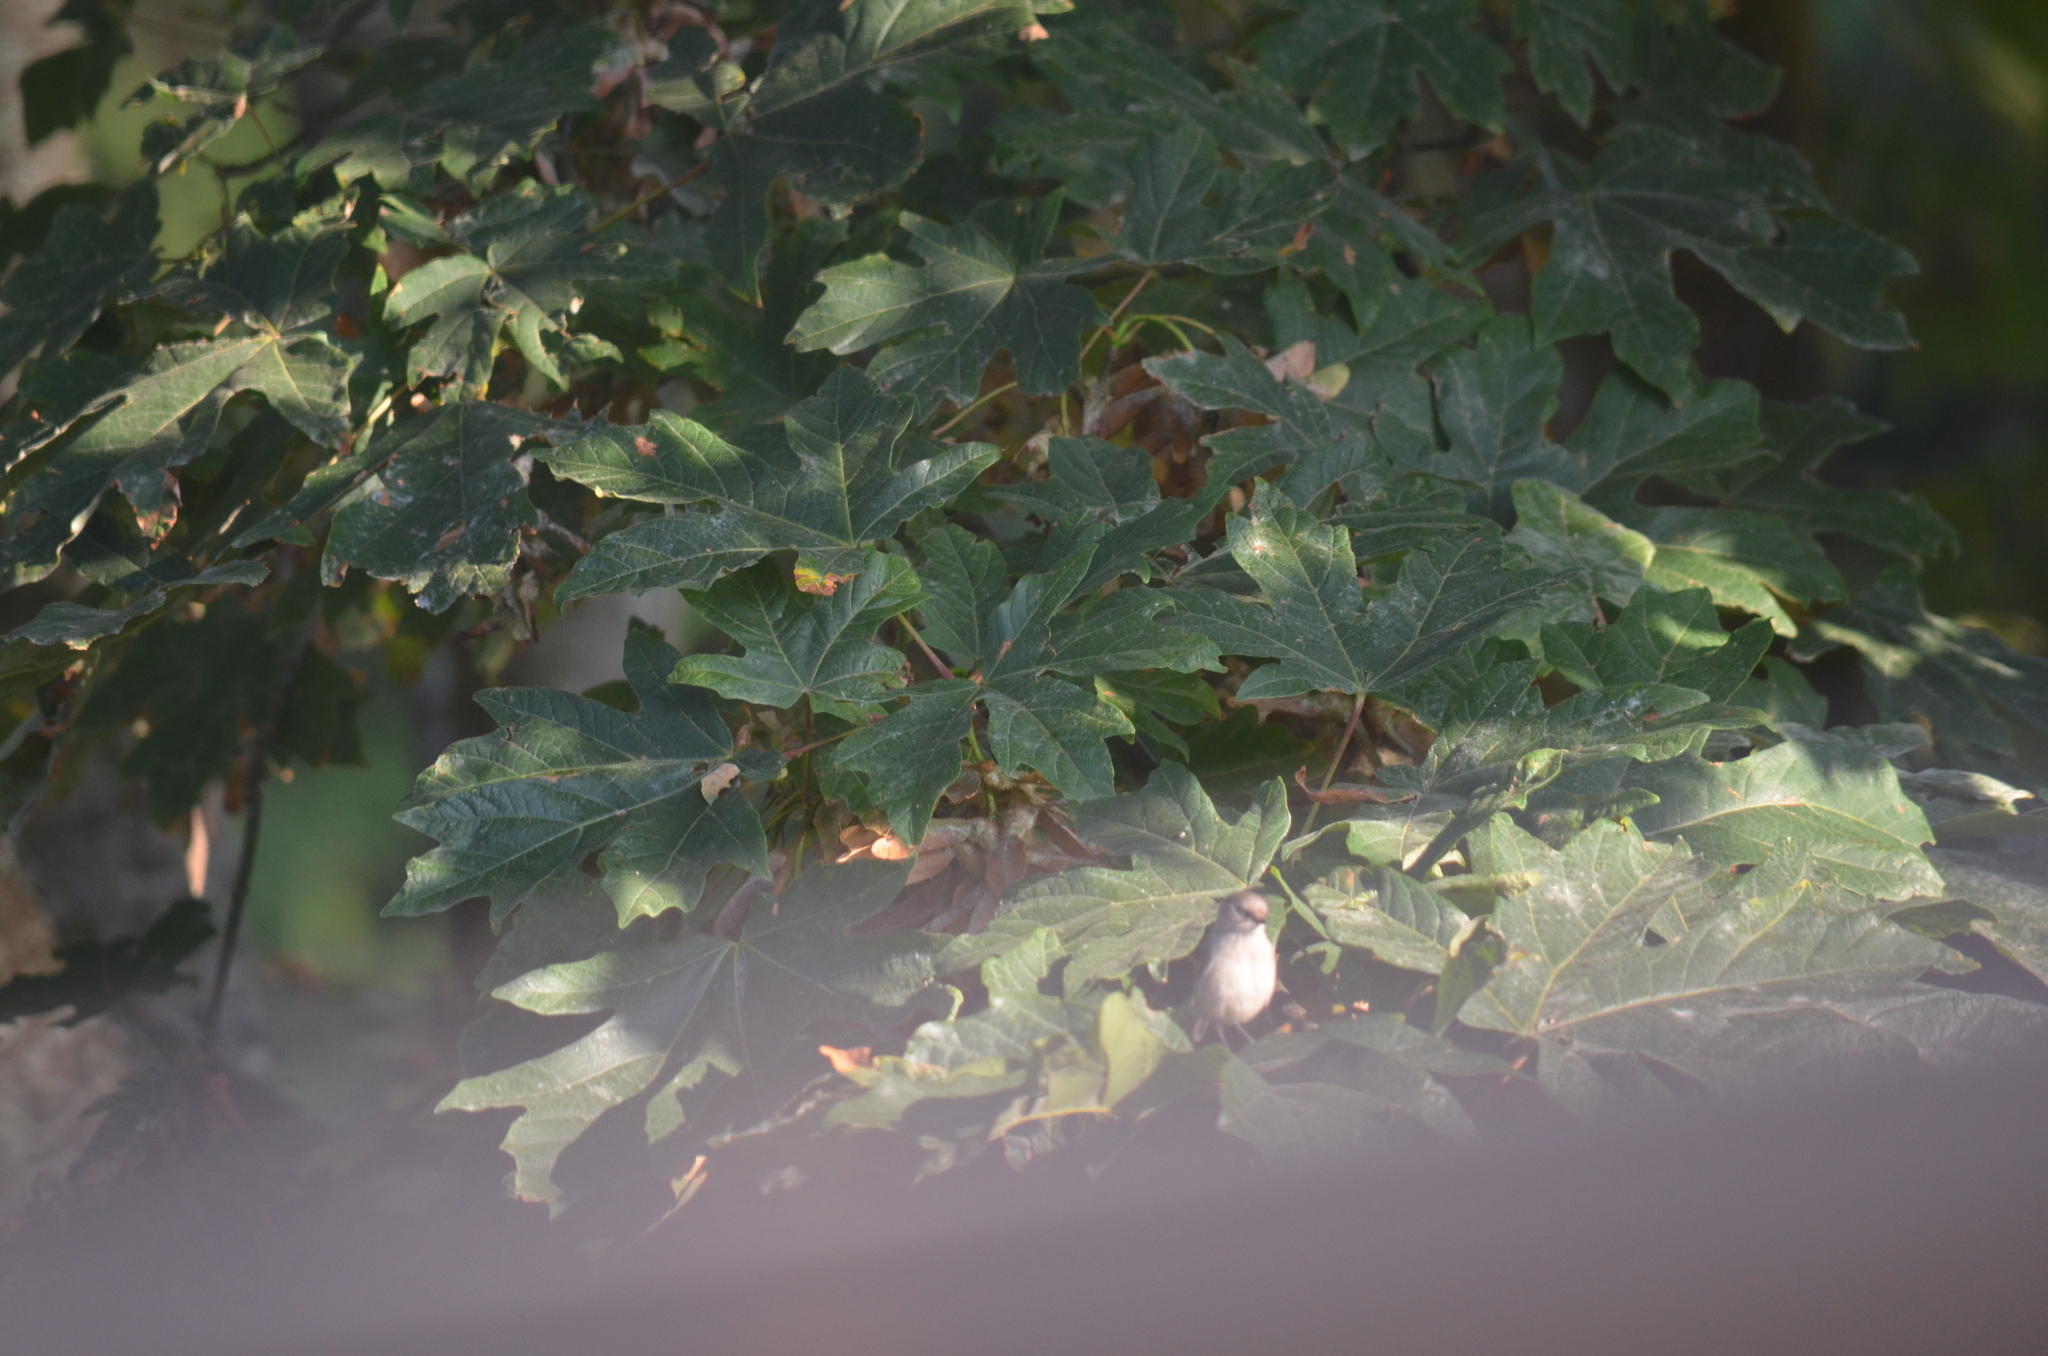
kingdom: Animalia
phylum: Chordata
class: Aves
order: Passeriformes
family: Aegithalidae
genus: Psaltriparus
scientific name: Psaltriparus minimus
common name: American bushtit
